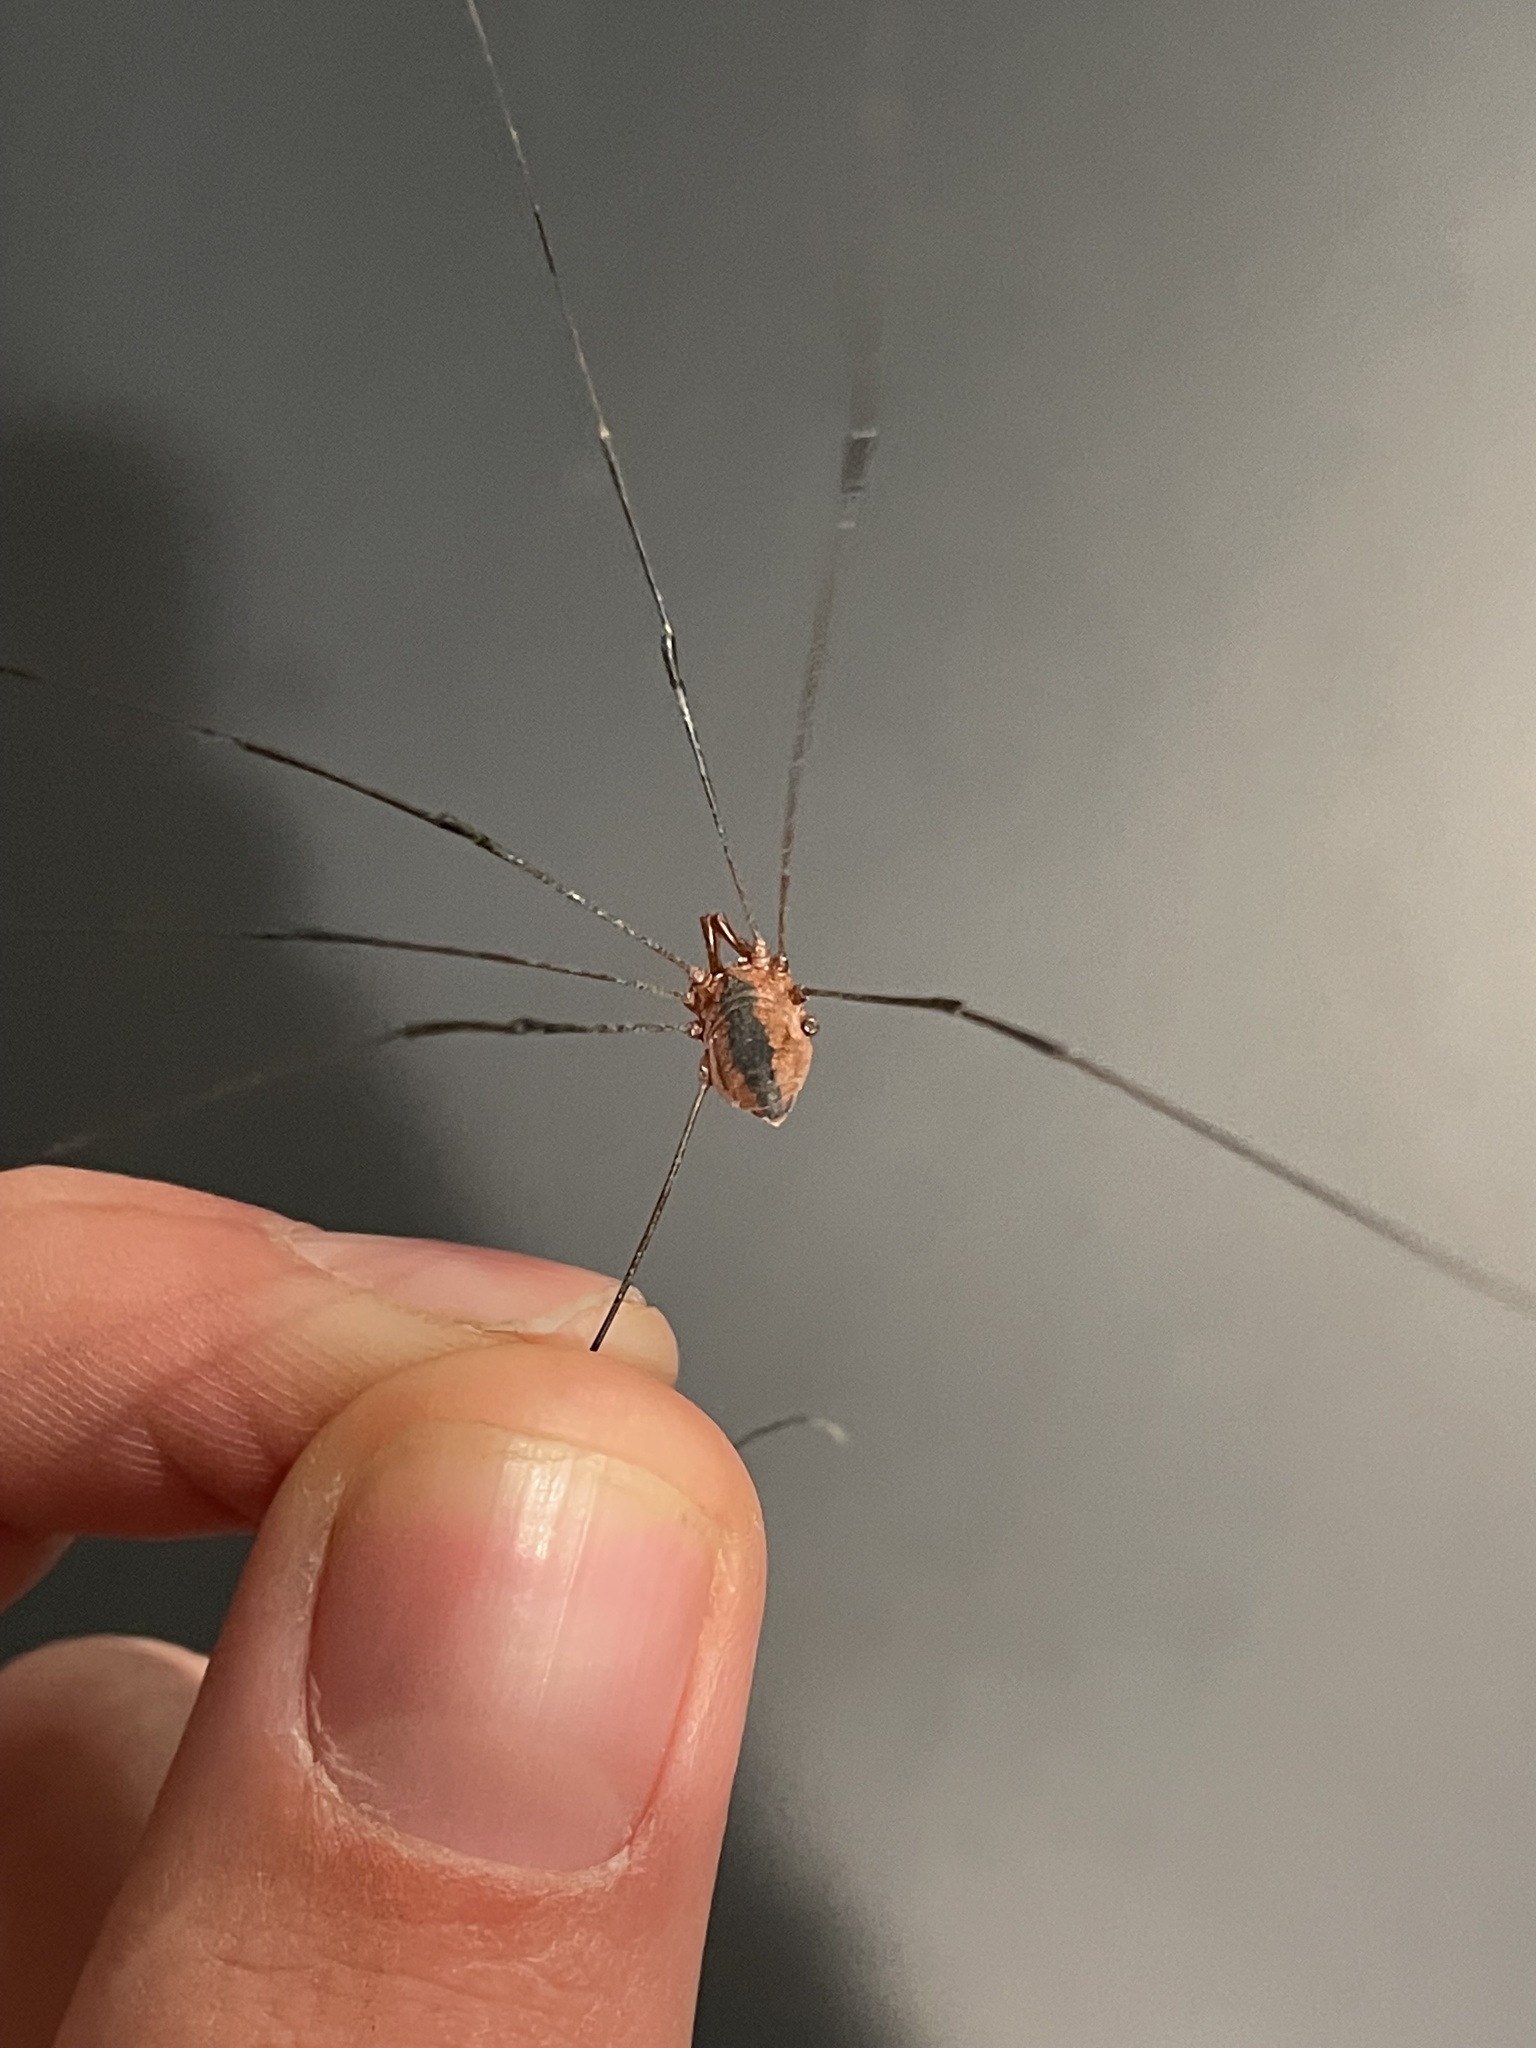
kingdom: Animalia
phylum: Arthropoda
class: Arachnida
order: Opiliones
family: Sclerosomatidae
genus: Leiobunum
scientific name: Leiobunum vittatum
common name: Eastern harvestman
